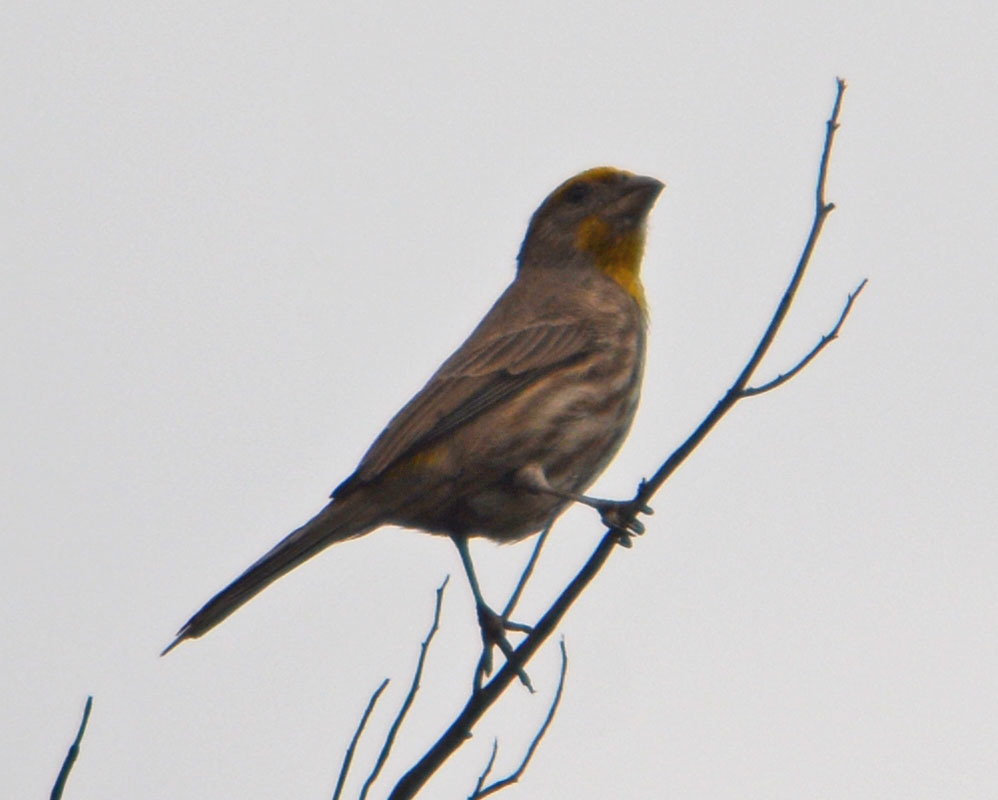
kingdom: Animalia
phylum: Chordata
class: Aves
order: Passeriformes
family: Fringillidae
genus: Haemorhous
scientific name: Haemorhous mexicanus
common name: House finch
